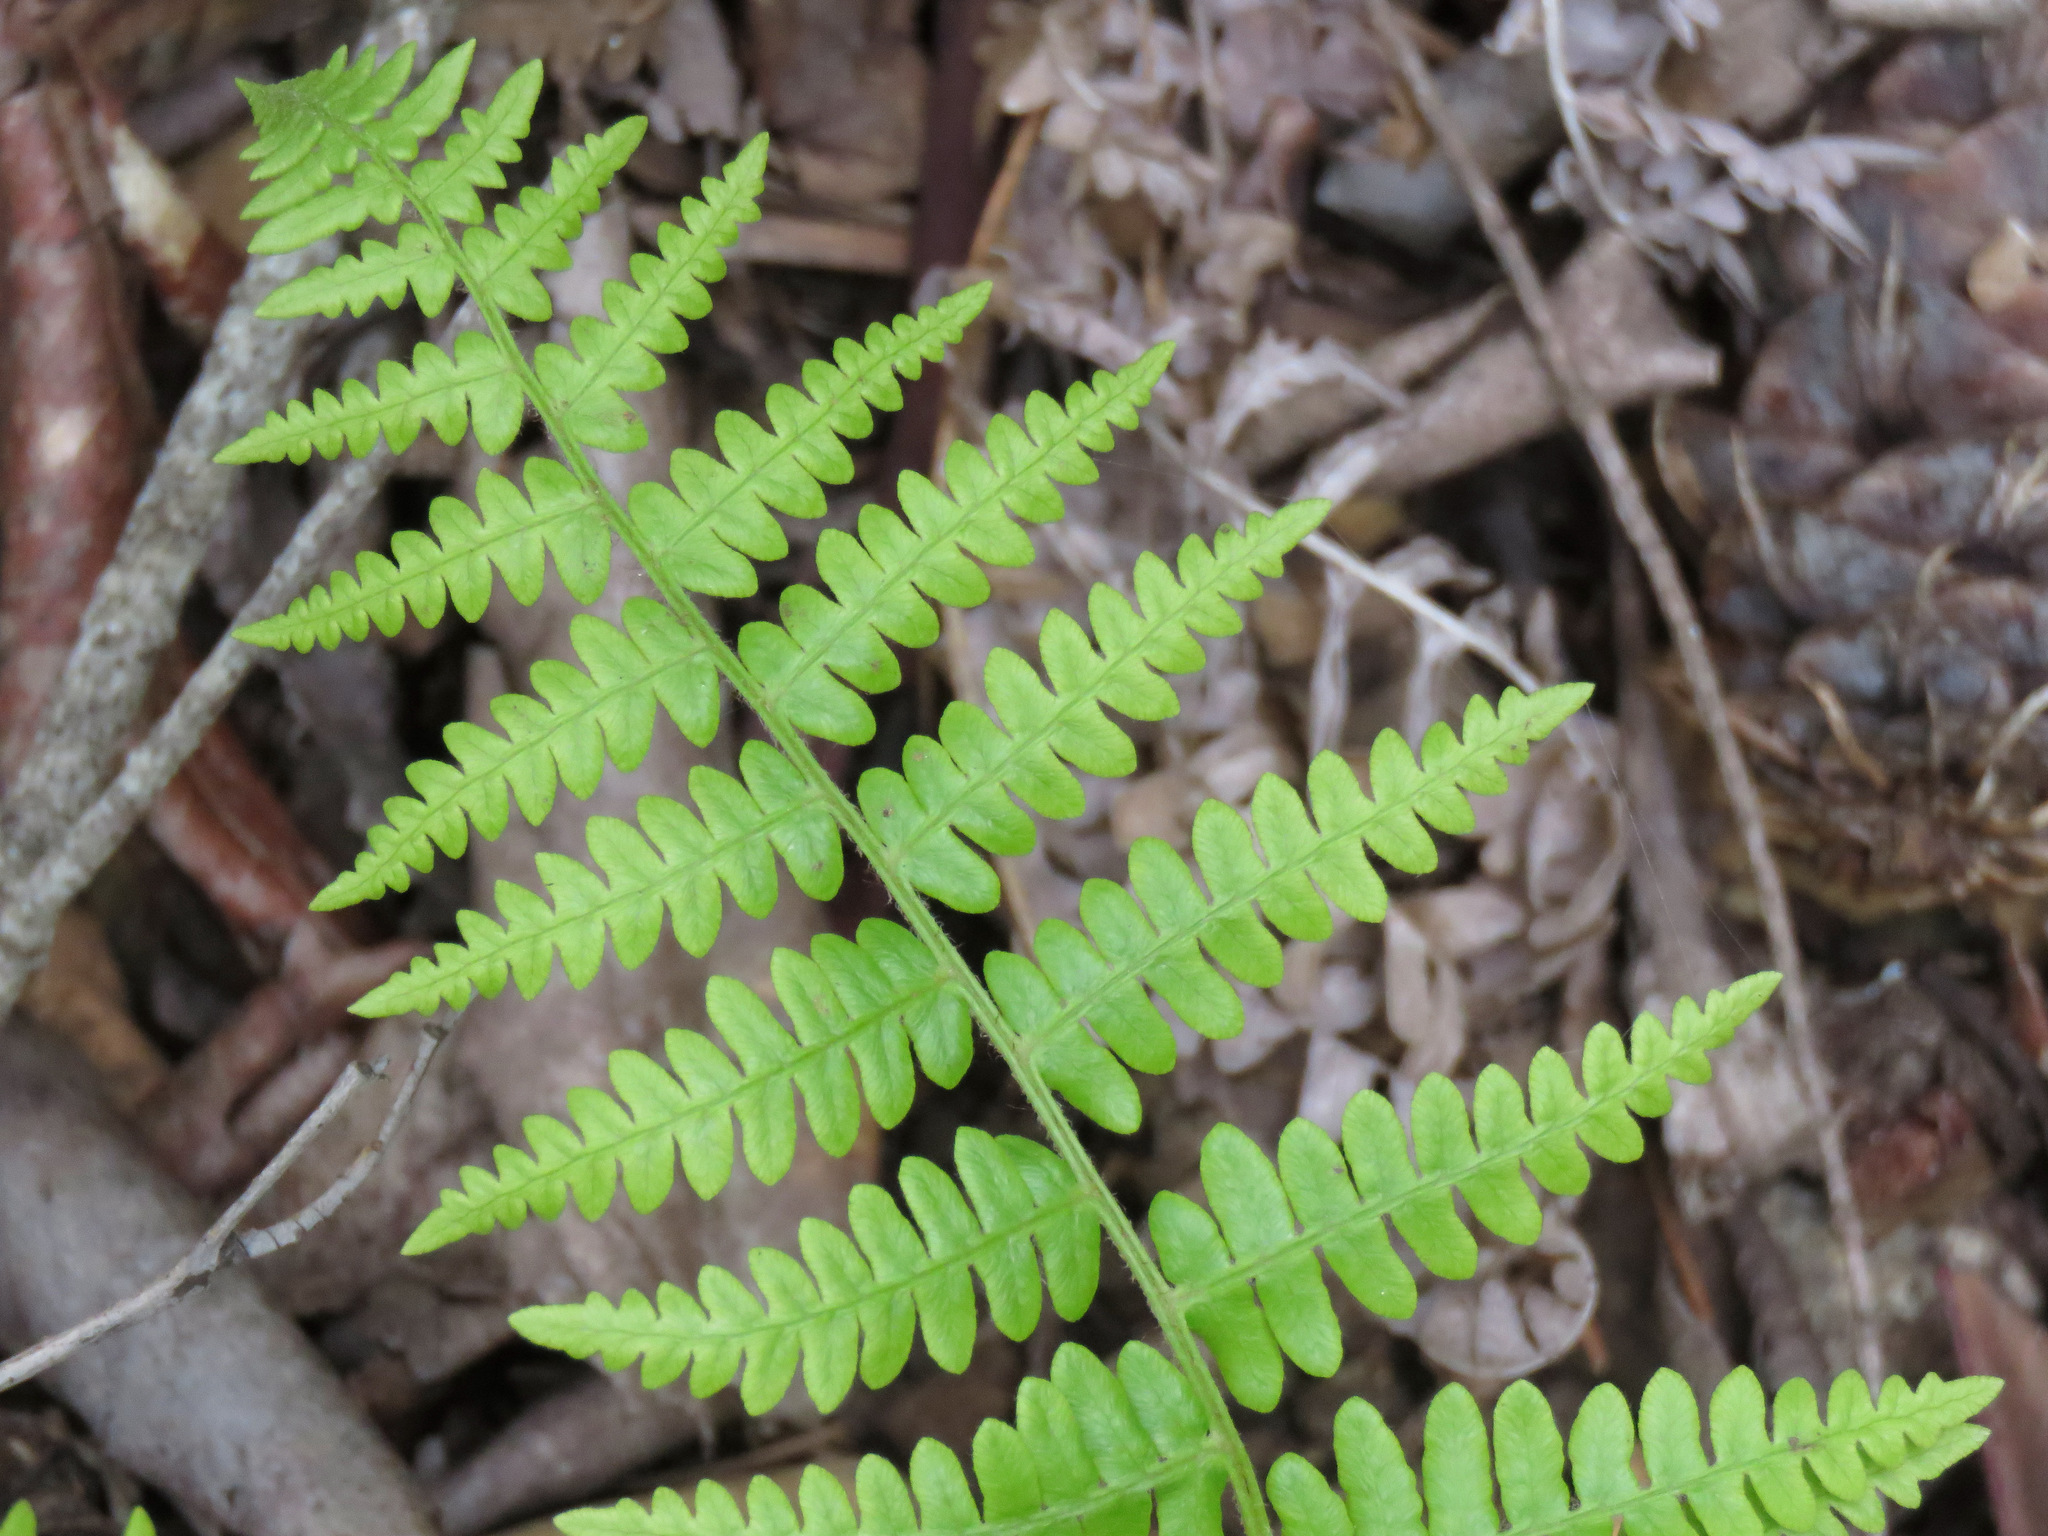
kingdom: Plantae
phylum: Tracheophyta
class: Polypodiopsida
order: Polypodiales
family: Dennstaedtiaceae
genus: Pteridium
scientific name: Pteridium aquilinum
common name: Bracken
